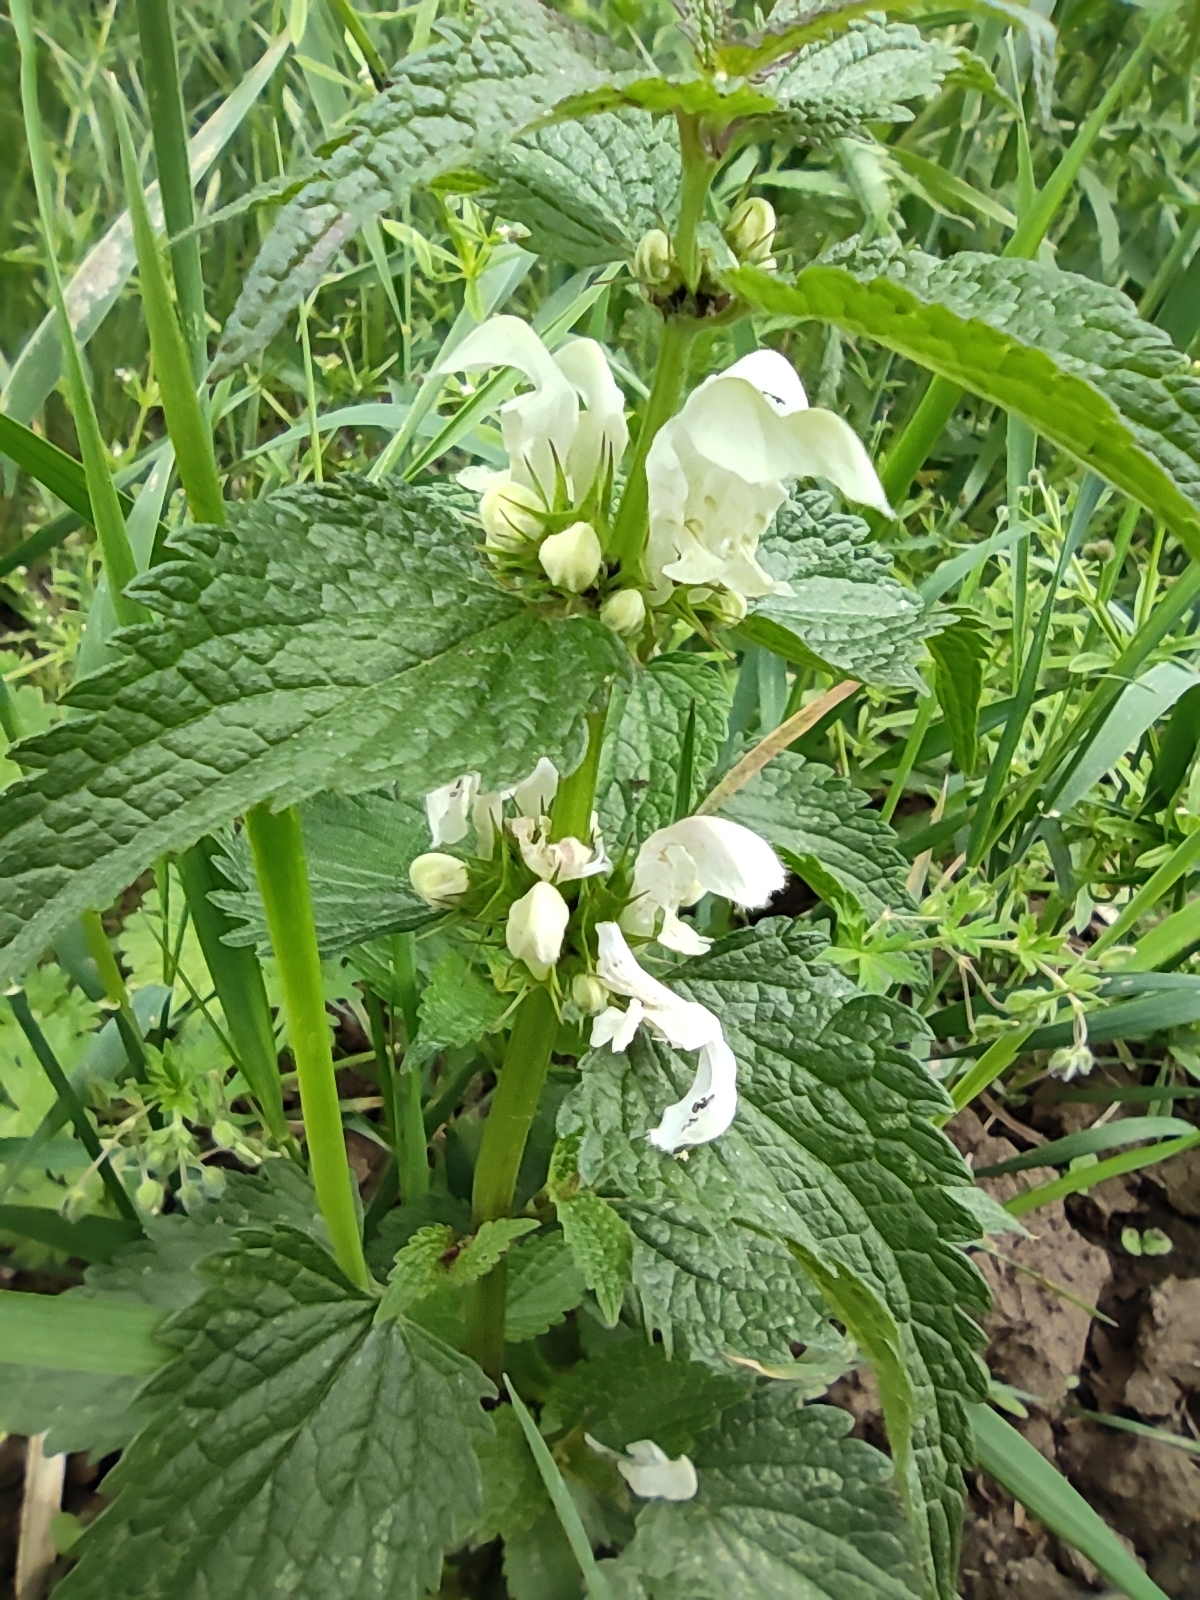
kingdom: Plantae
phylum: Tracheophyta
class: Magnoliopsida
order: Lamiales
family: Lamiaceae
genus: Lamium
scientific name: Lamium album
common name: White dead-nettle
